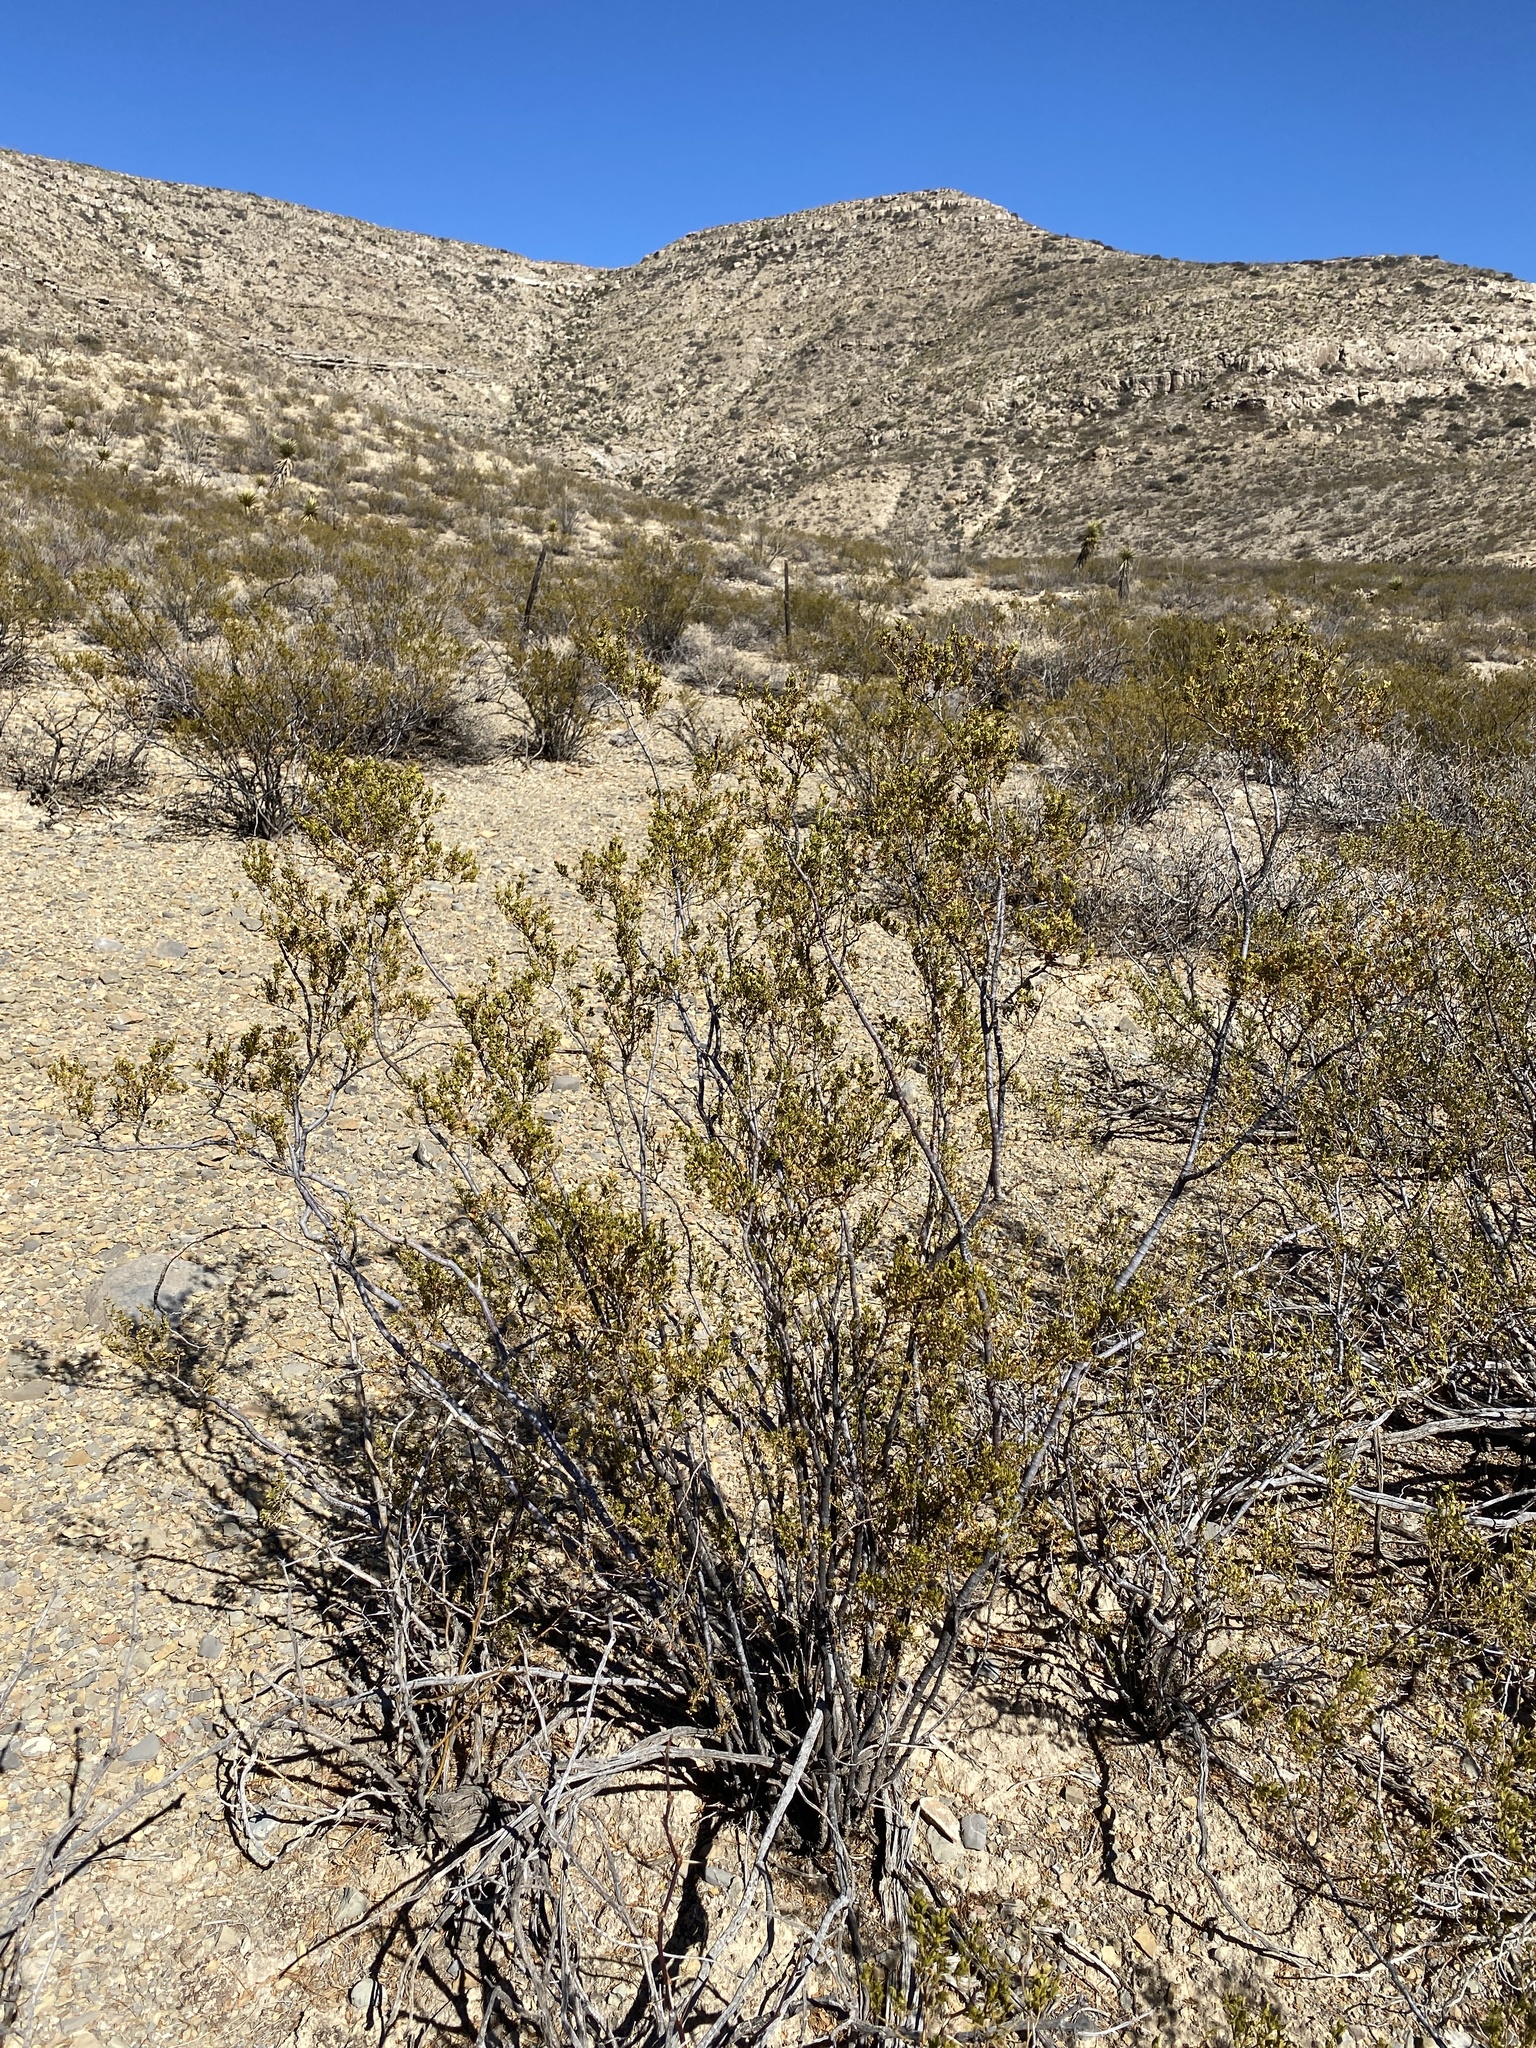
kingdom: Plantae
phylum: Tracheophyta
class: Magnoliopsida
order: Zygophyllales
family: Zygophyllaceae
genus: Larrea
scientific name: Larrea tridentata
